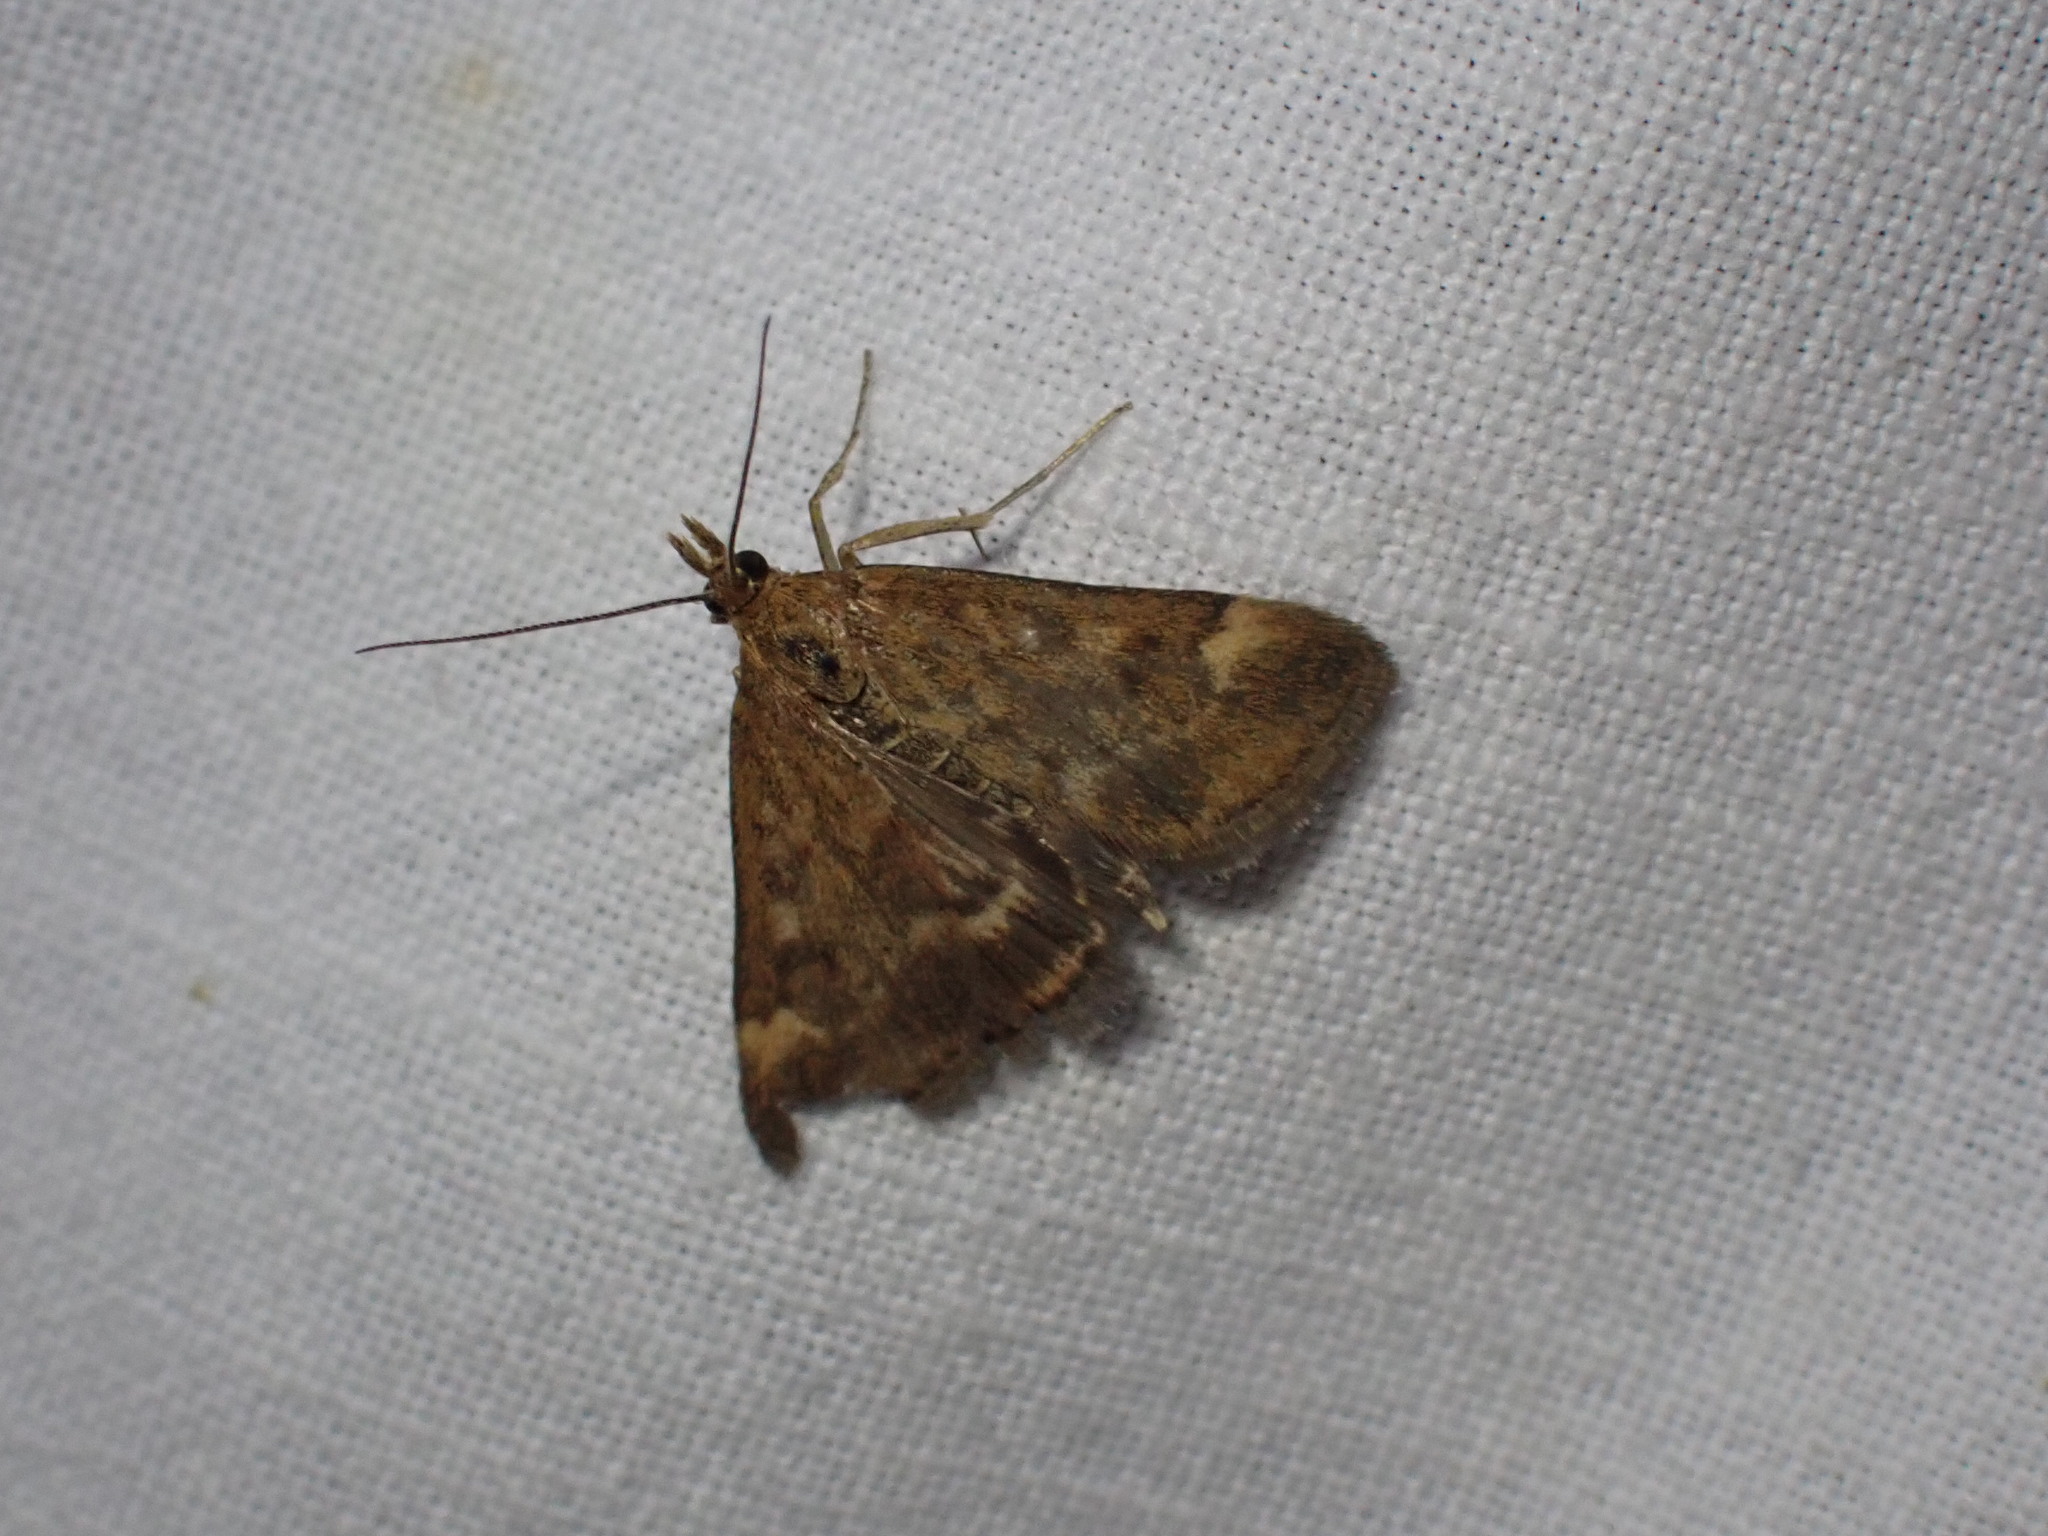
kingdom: Animalia
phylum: Arthropoda
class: Insecta
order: Lepidoptera
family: Crambidae
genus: Pyrausta
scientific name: Pyrausta despicata
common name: Straw-barred pearl
